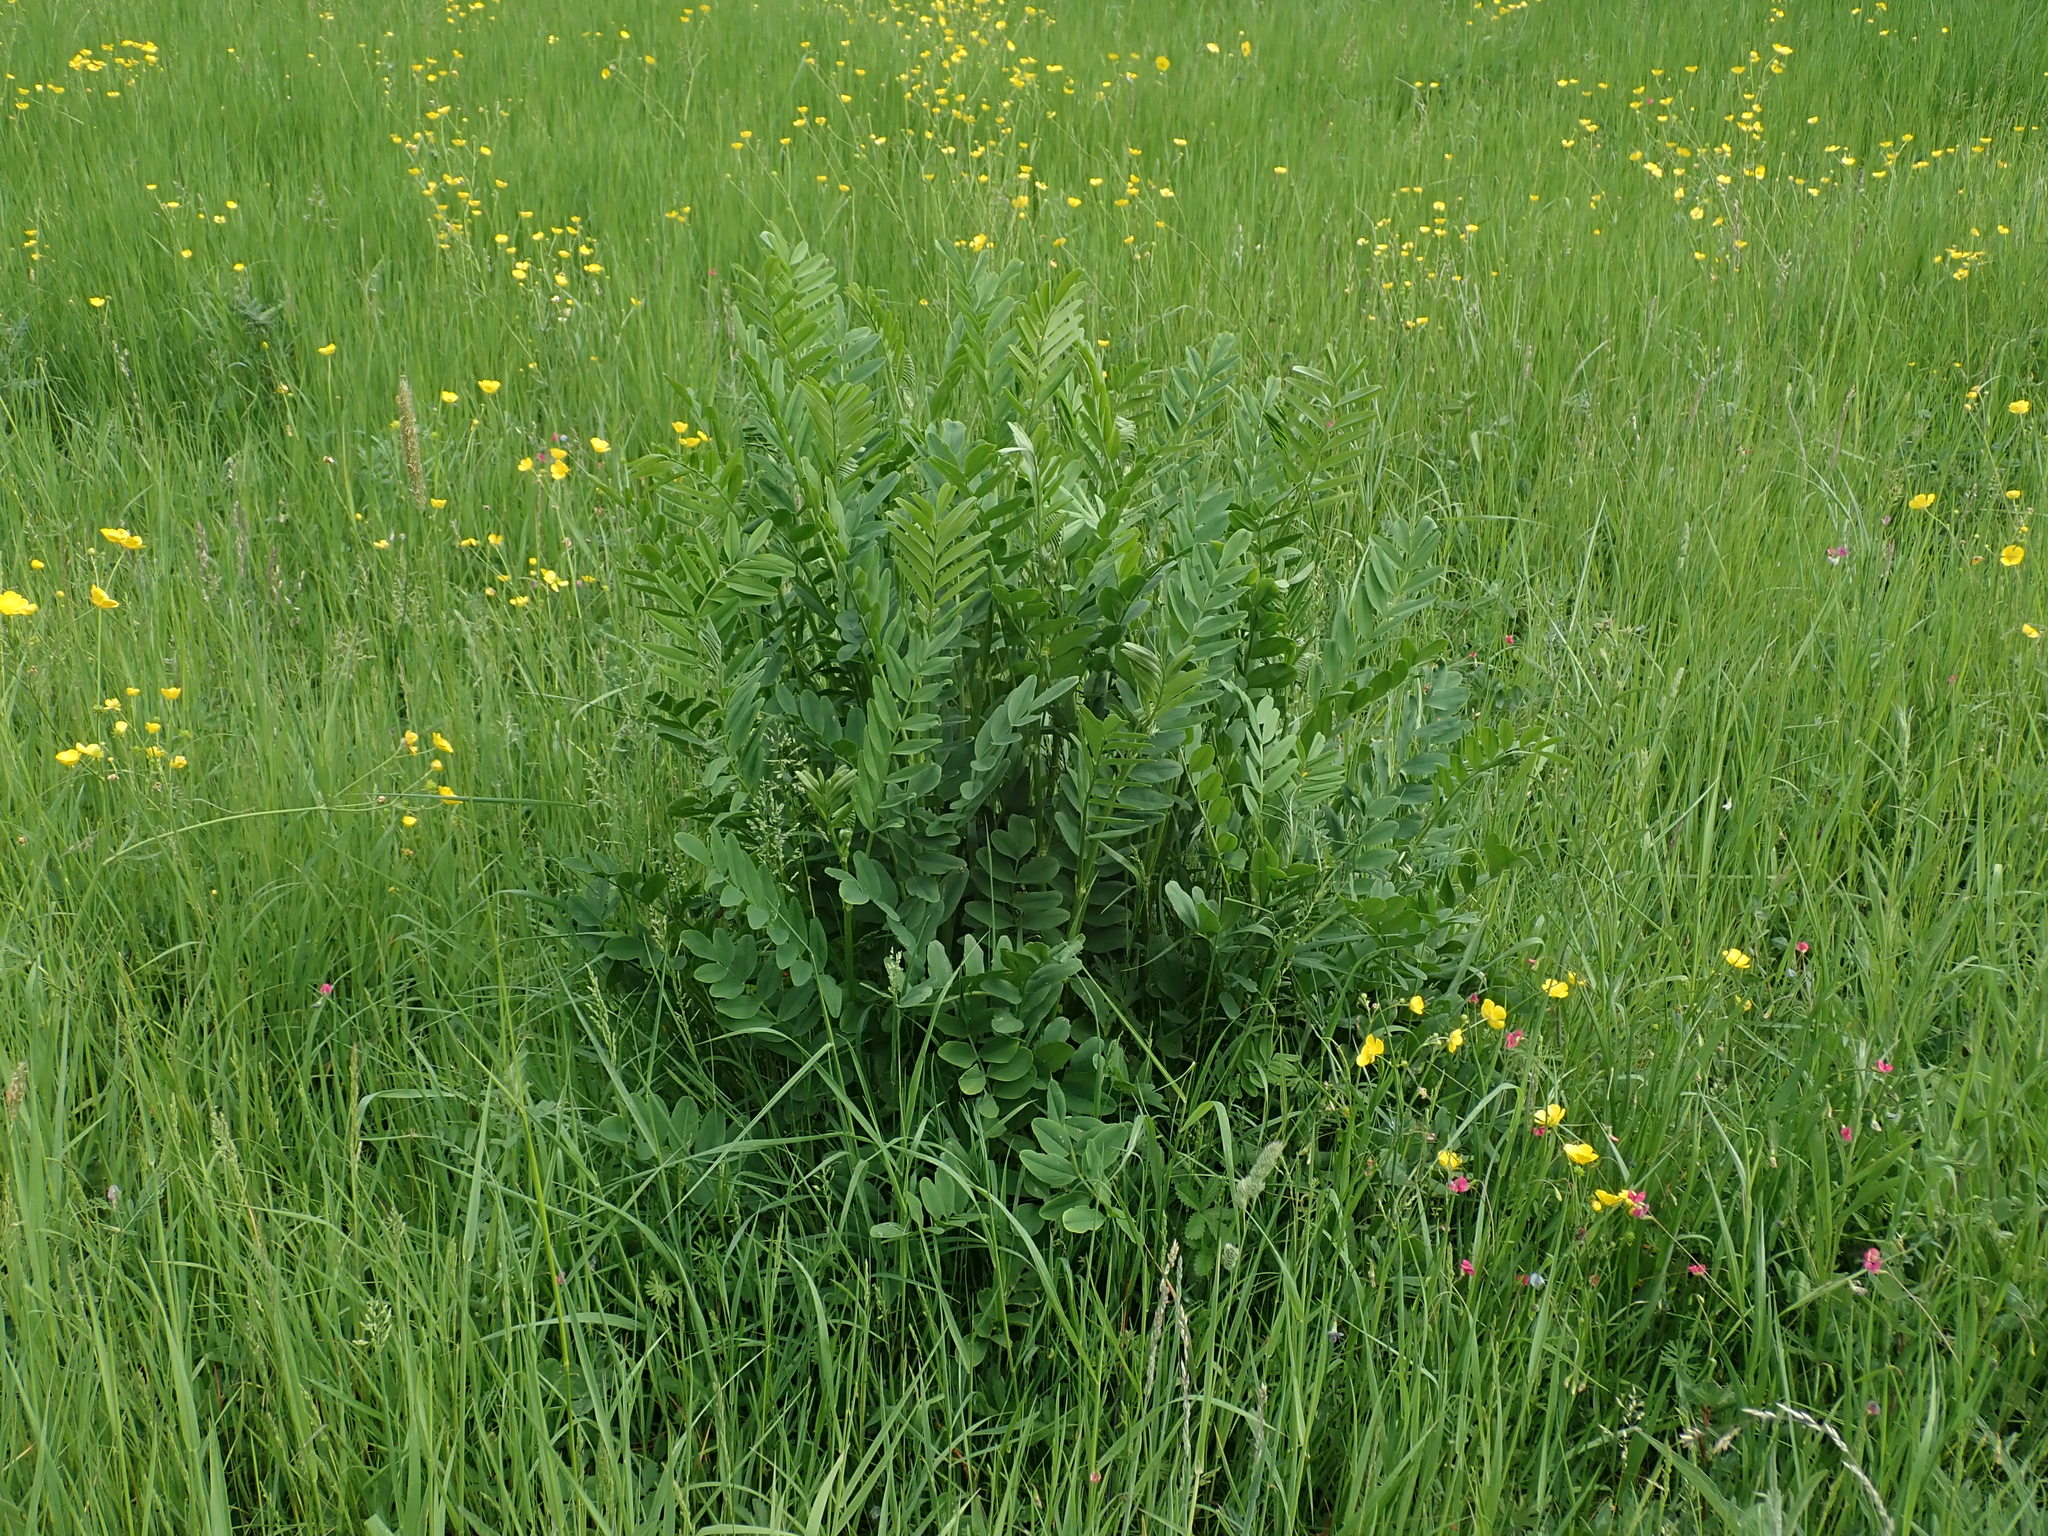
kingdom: Plantae
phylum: Tracheophyta
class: Magnoliopsida
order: Fabales
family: Fabaceae
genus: Galega
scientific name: Galega officinalis
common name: Goat's-rue
